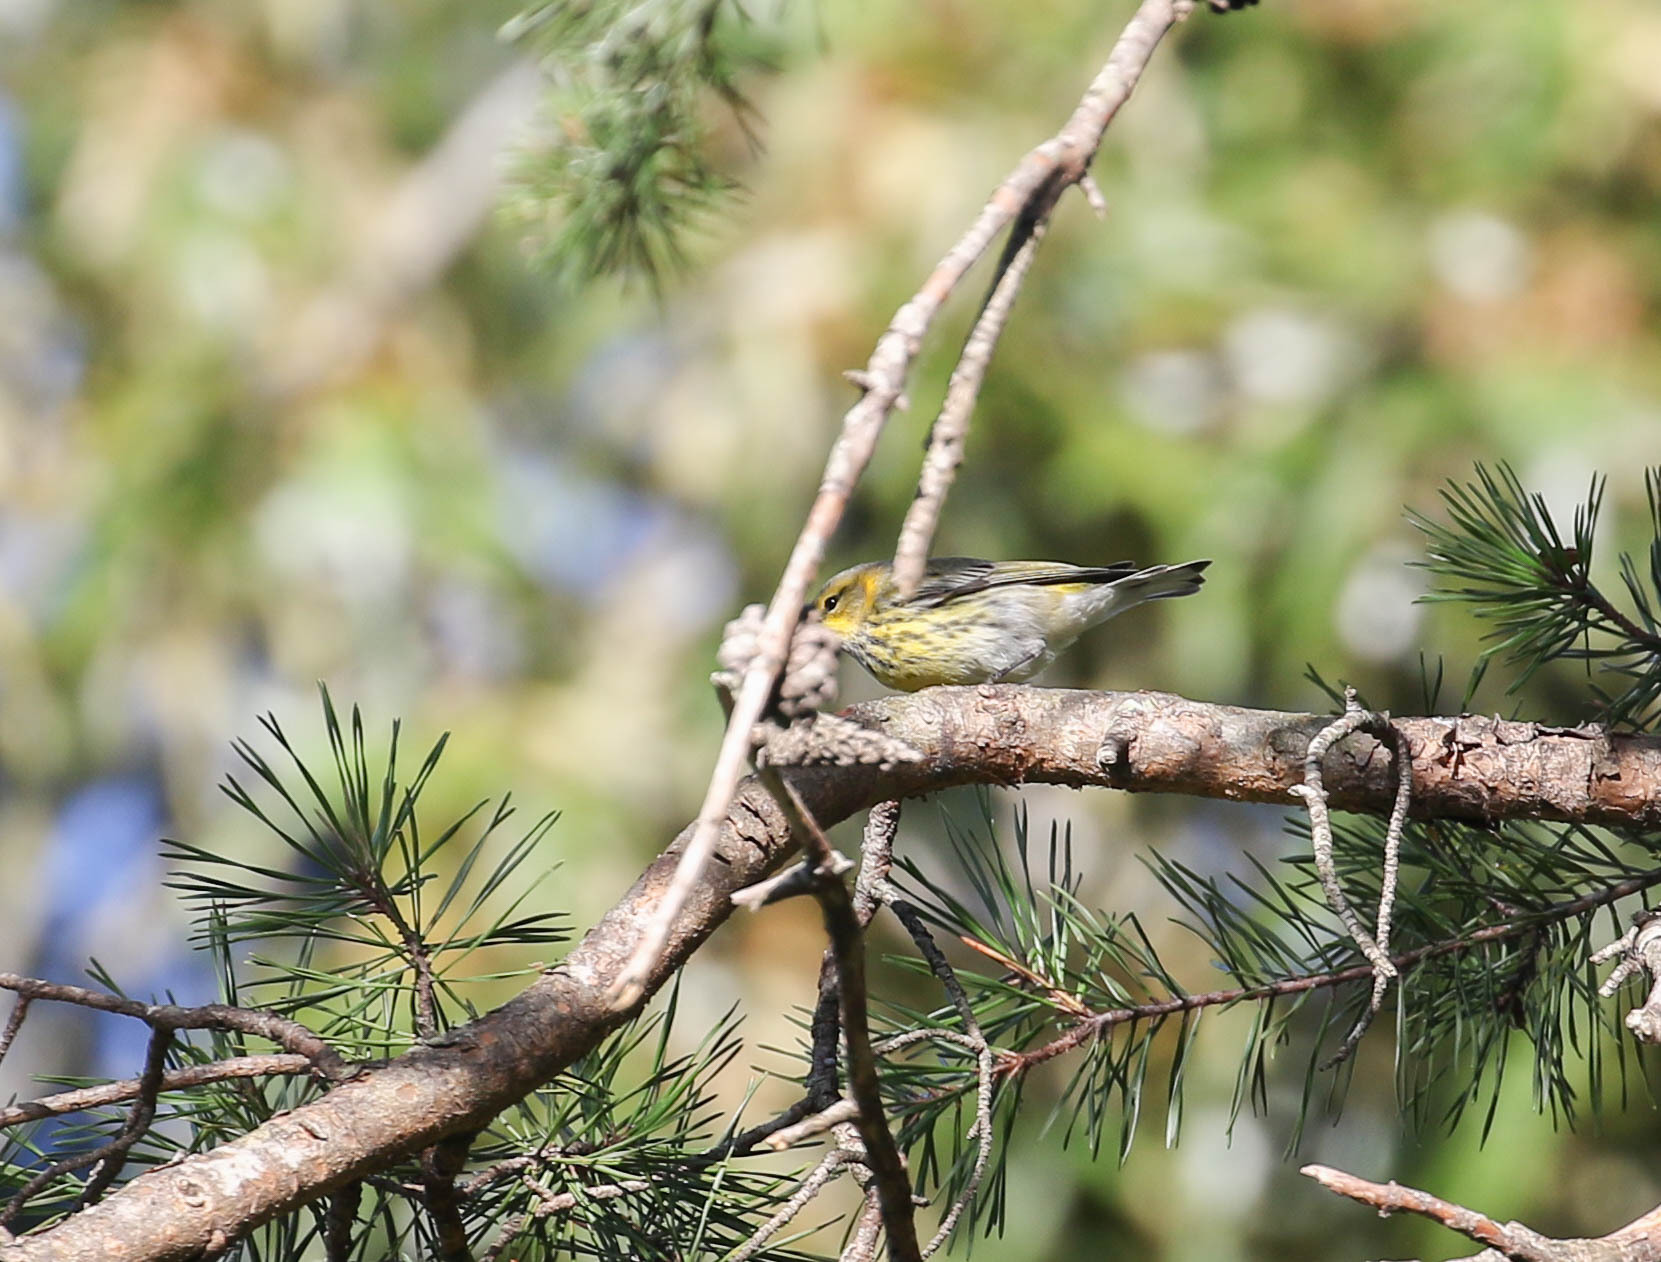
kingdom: Animalia
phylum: Chordata
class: Aves
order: Passeriformes
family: Parulidae
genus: Setophaga
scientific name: Setophaga tigrina
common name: Cape may warbler
